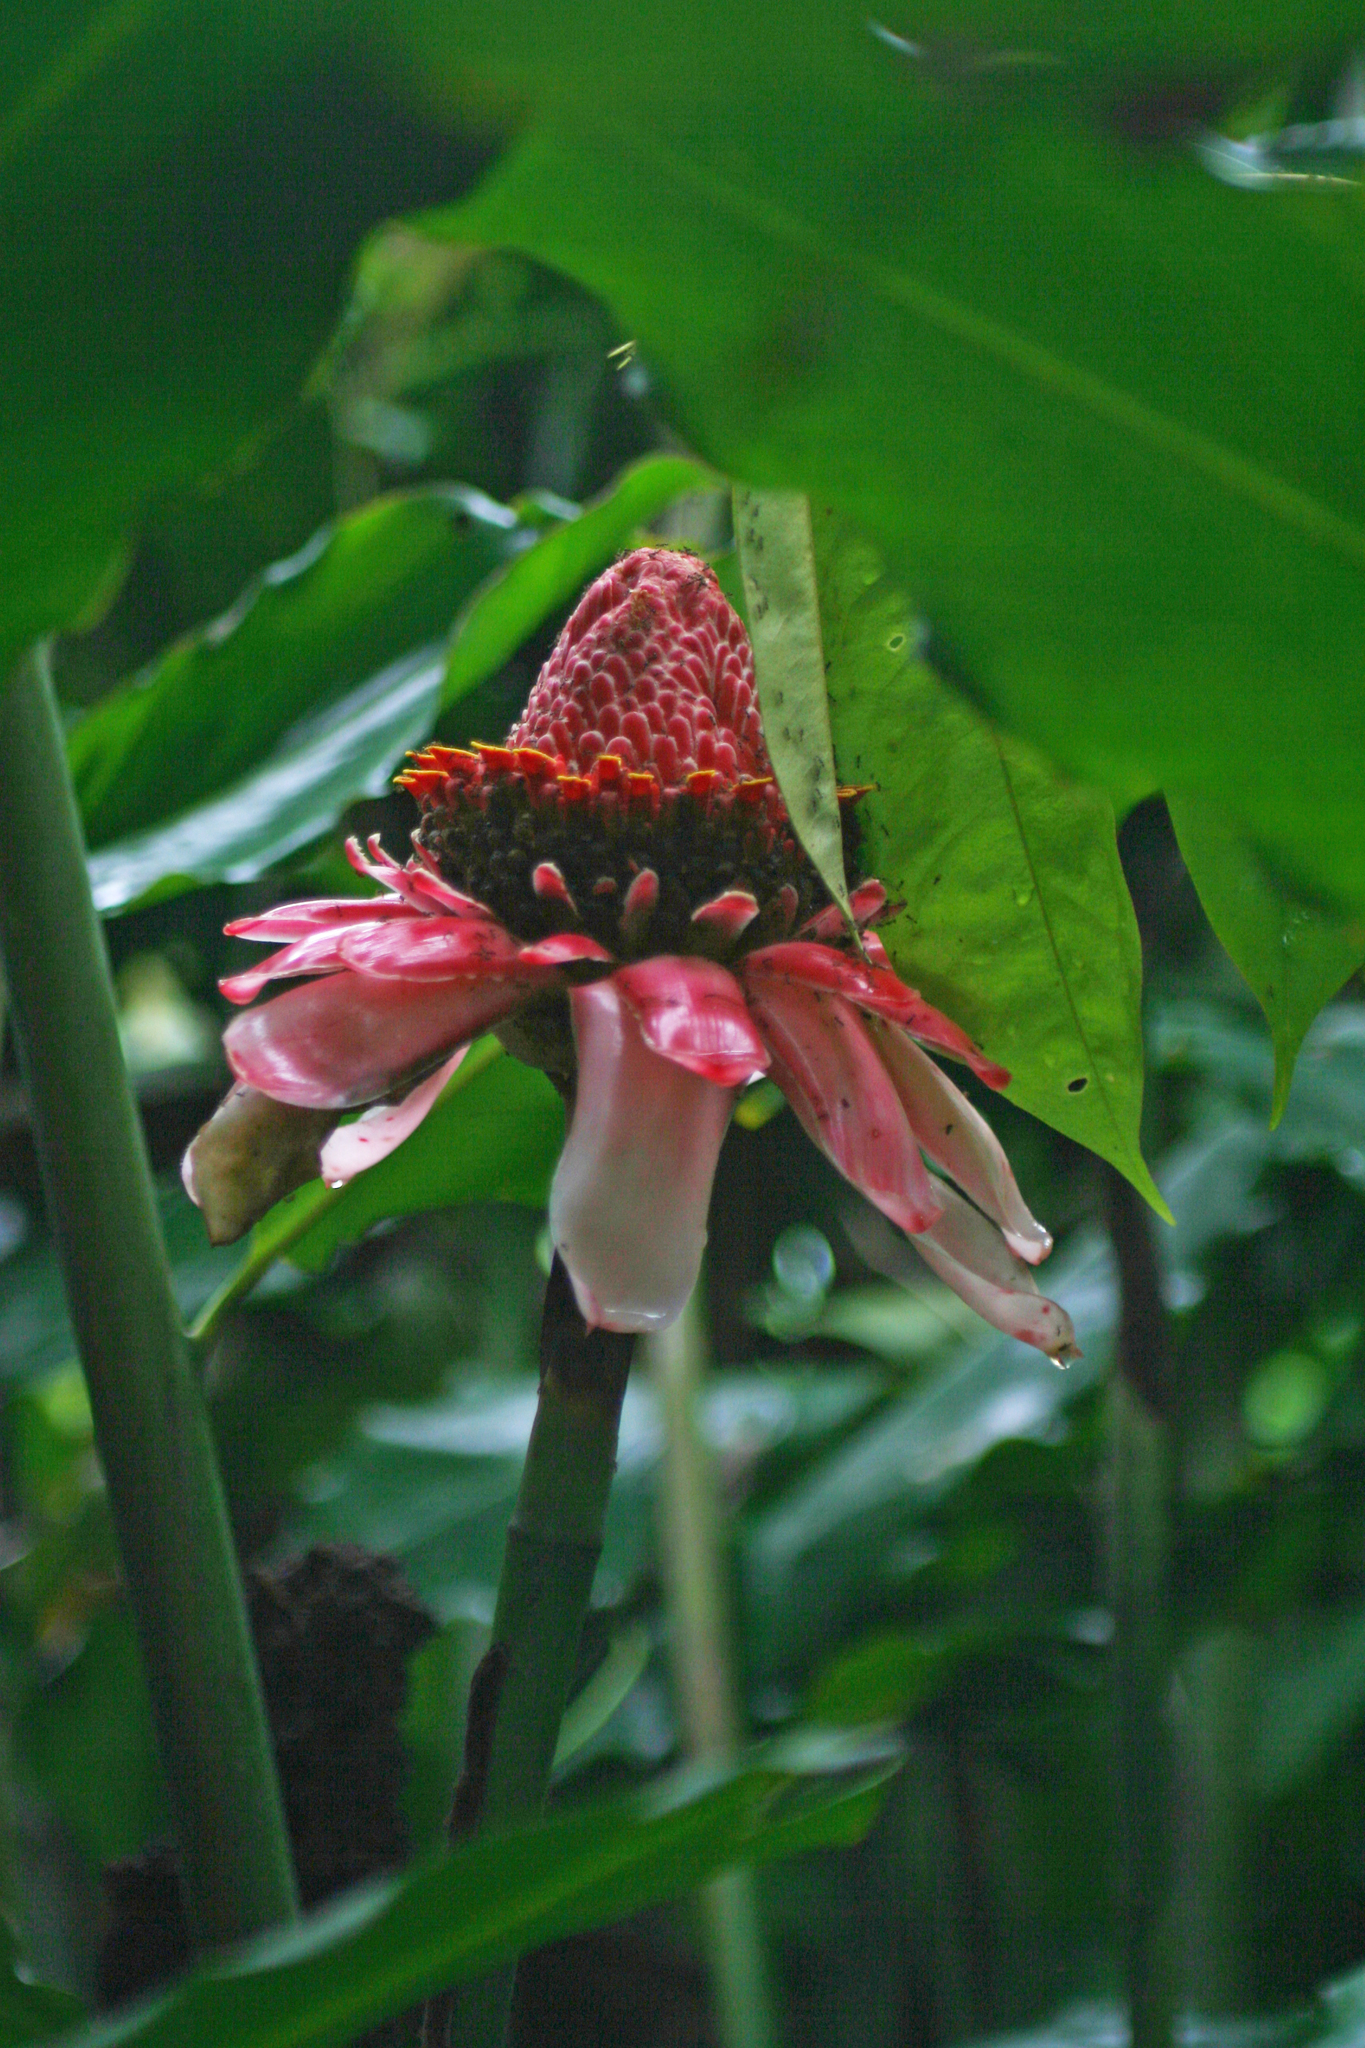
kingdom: Plantae
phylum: Tracheophyta
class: Liliopsida
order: Zingiberales
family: Zingiberaceae
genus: Etlingera
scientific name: Etlingera elatior
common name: Philippine waxflower
